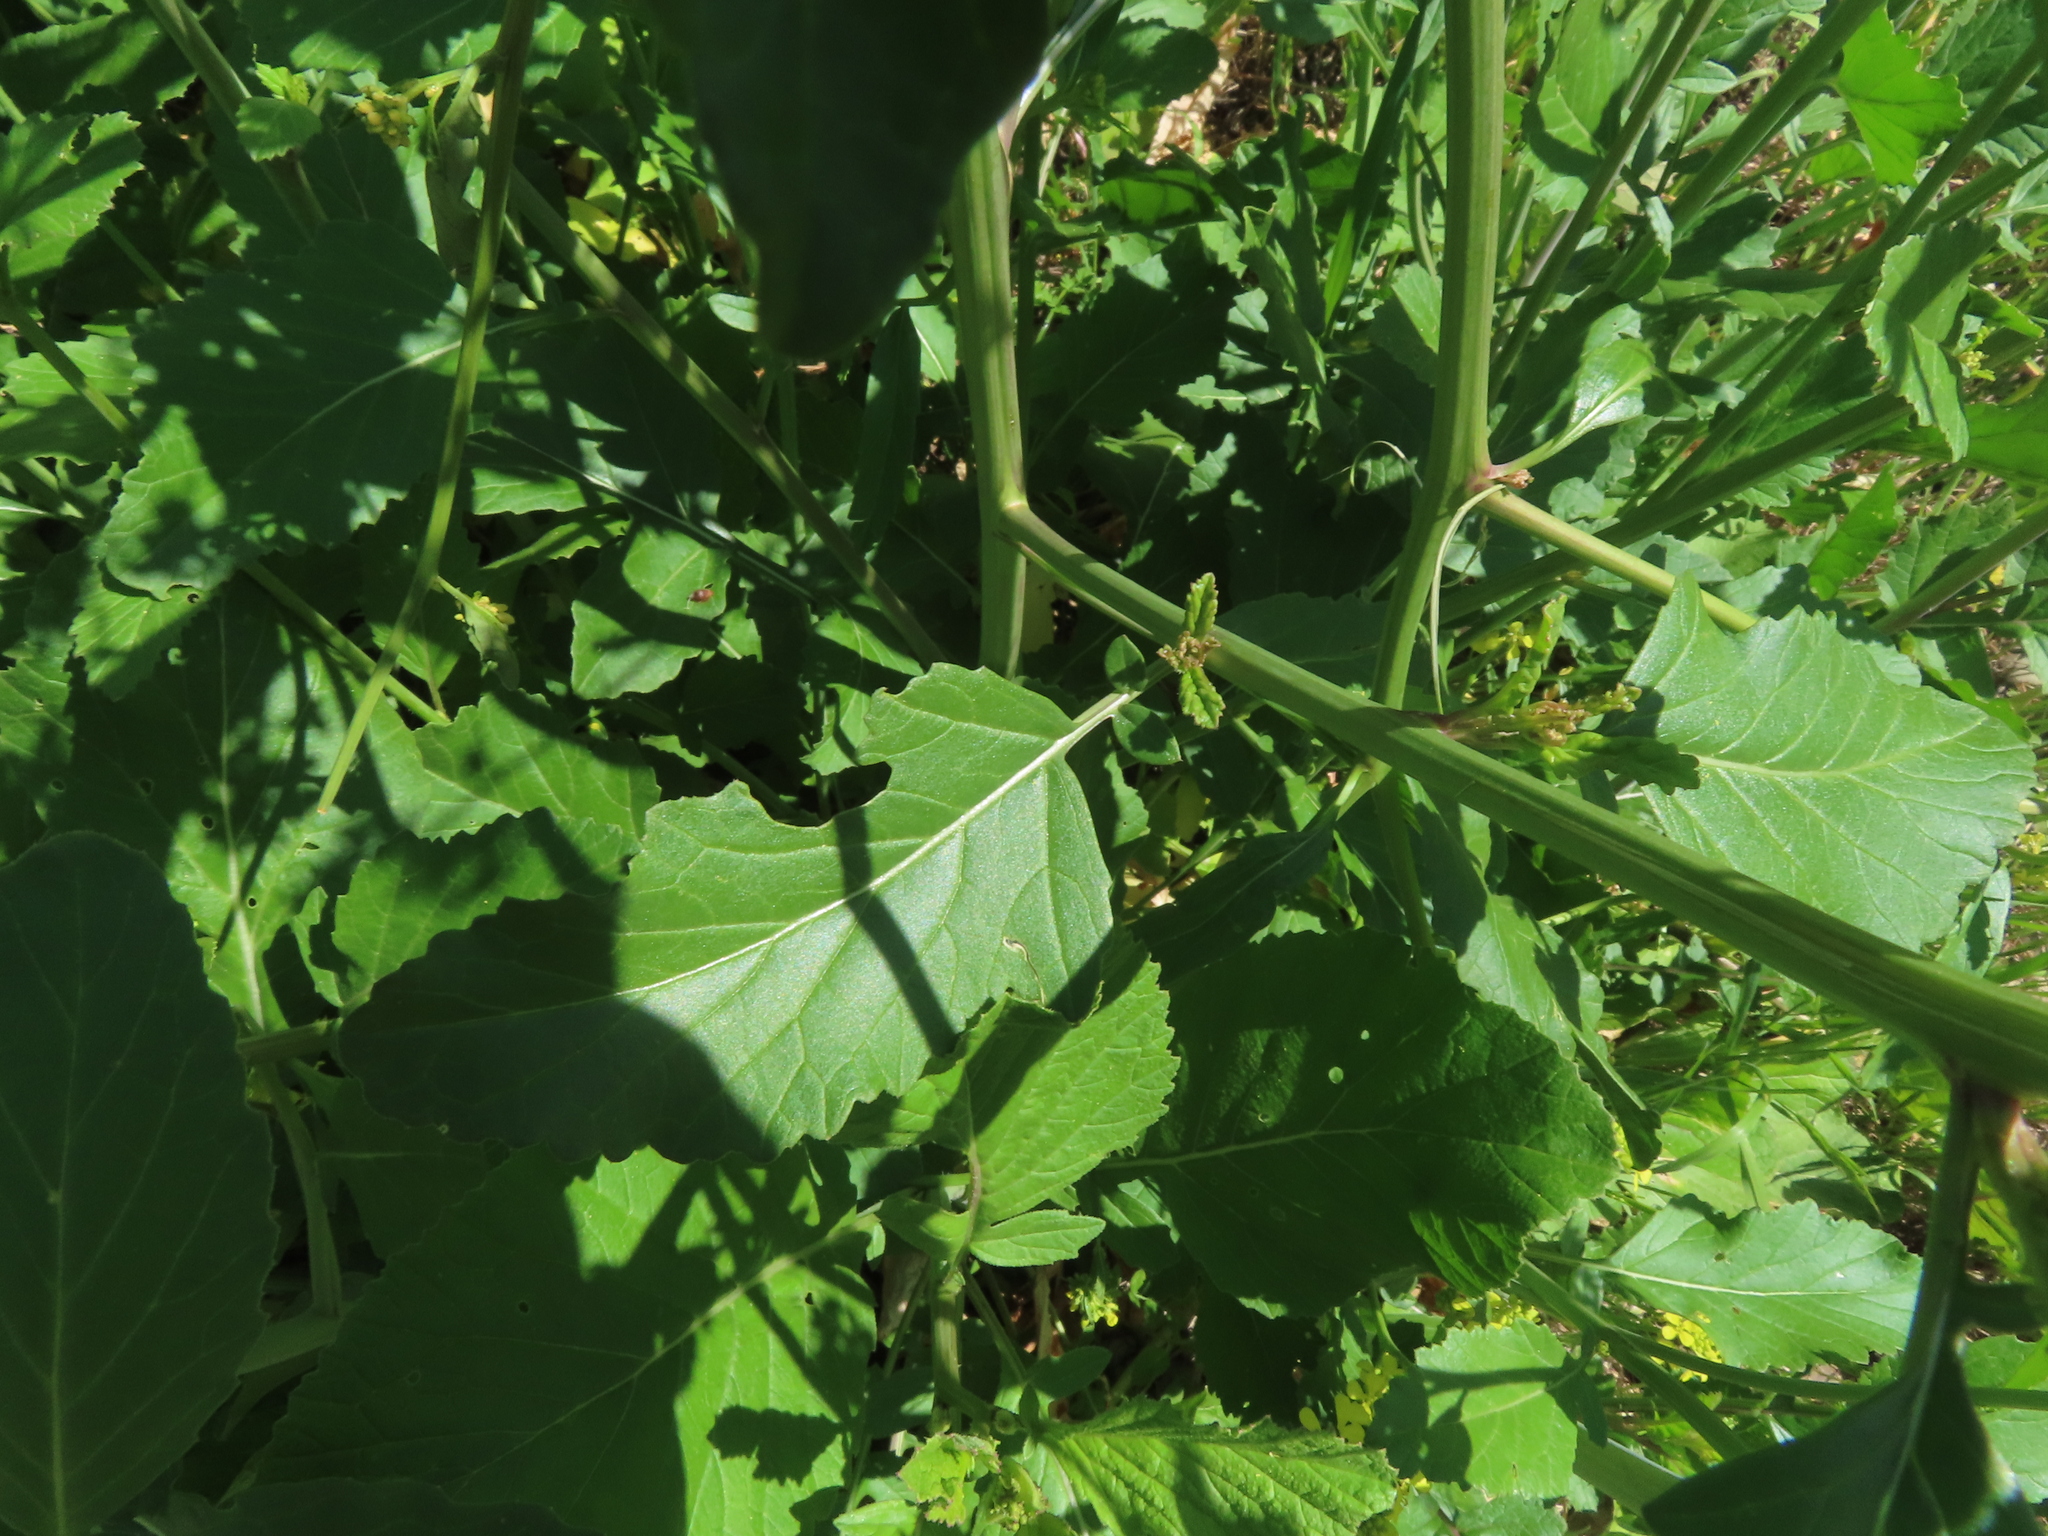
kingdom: Plantae
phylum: Tracheophyta
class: Magnoliopsida
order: Brassicales
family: Brassicaceae
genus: Rapistrum
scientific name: Rapistrum rugosum
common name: Annual bastardcabbage
